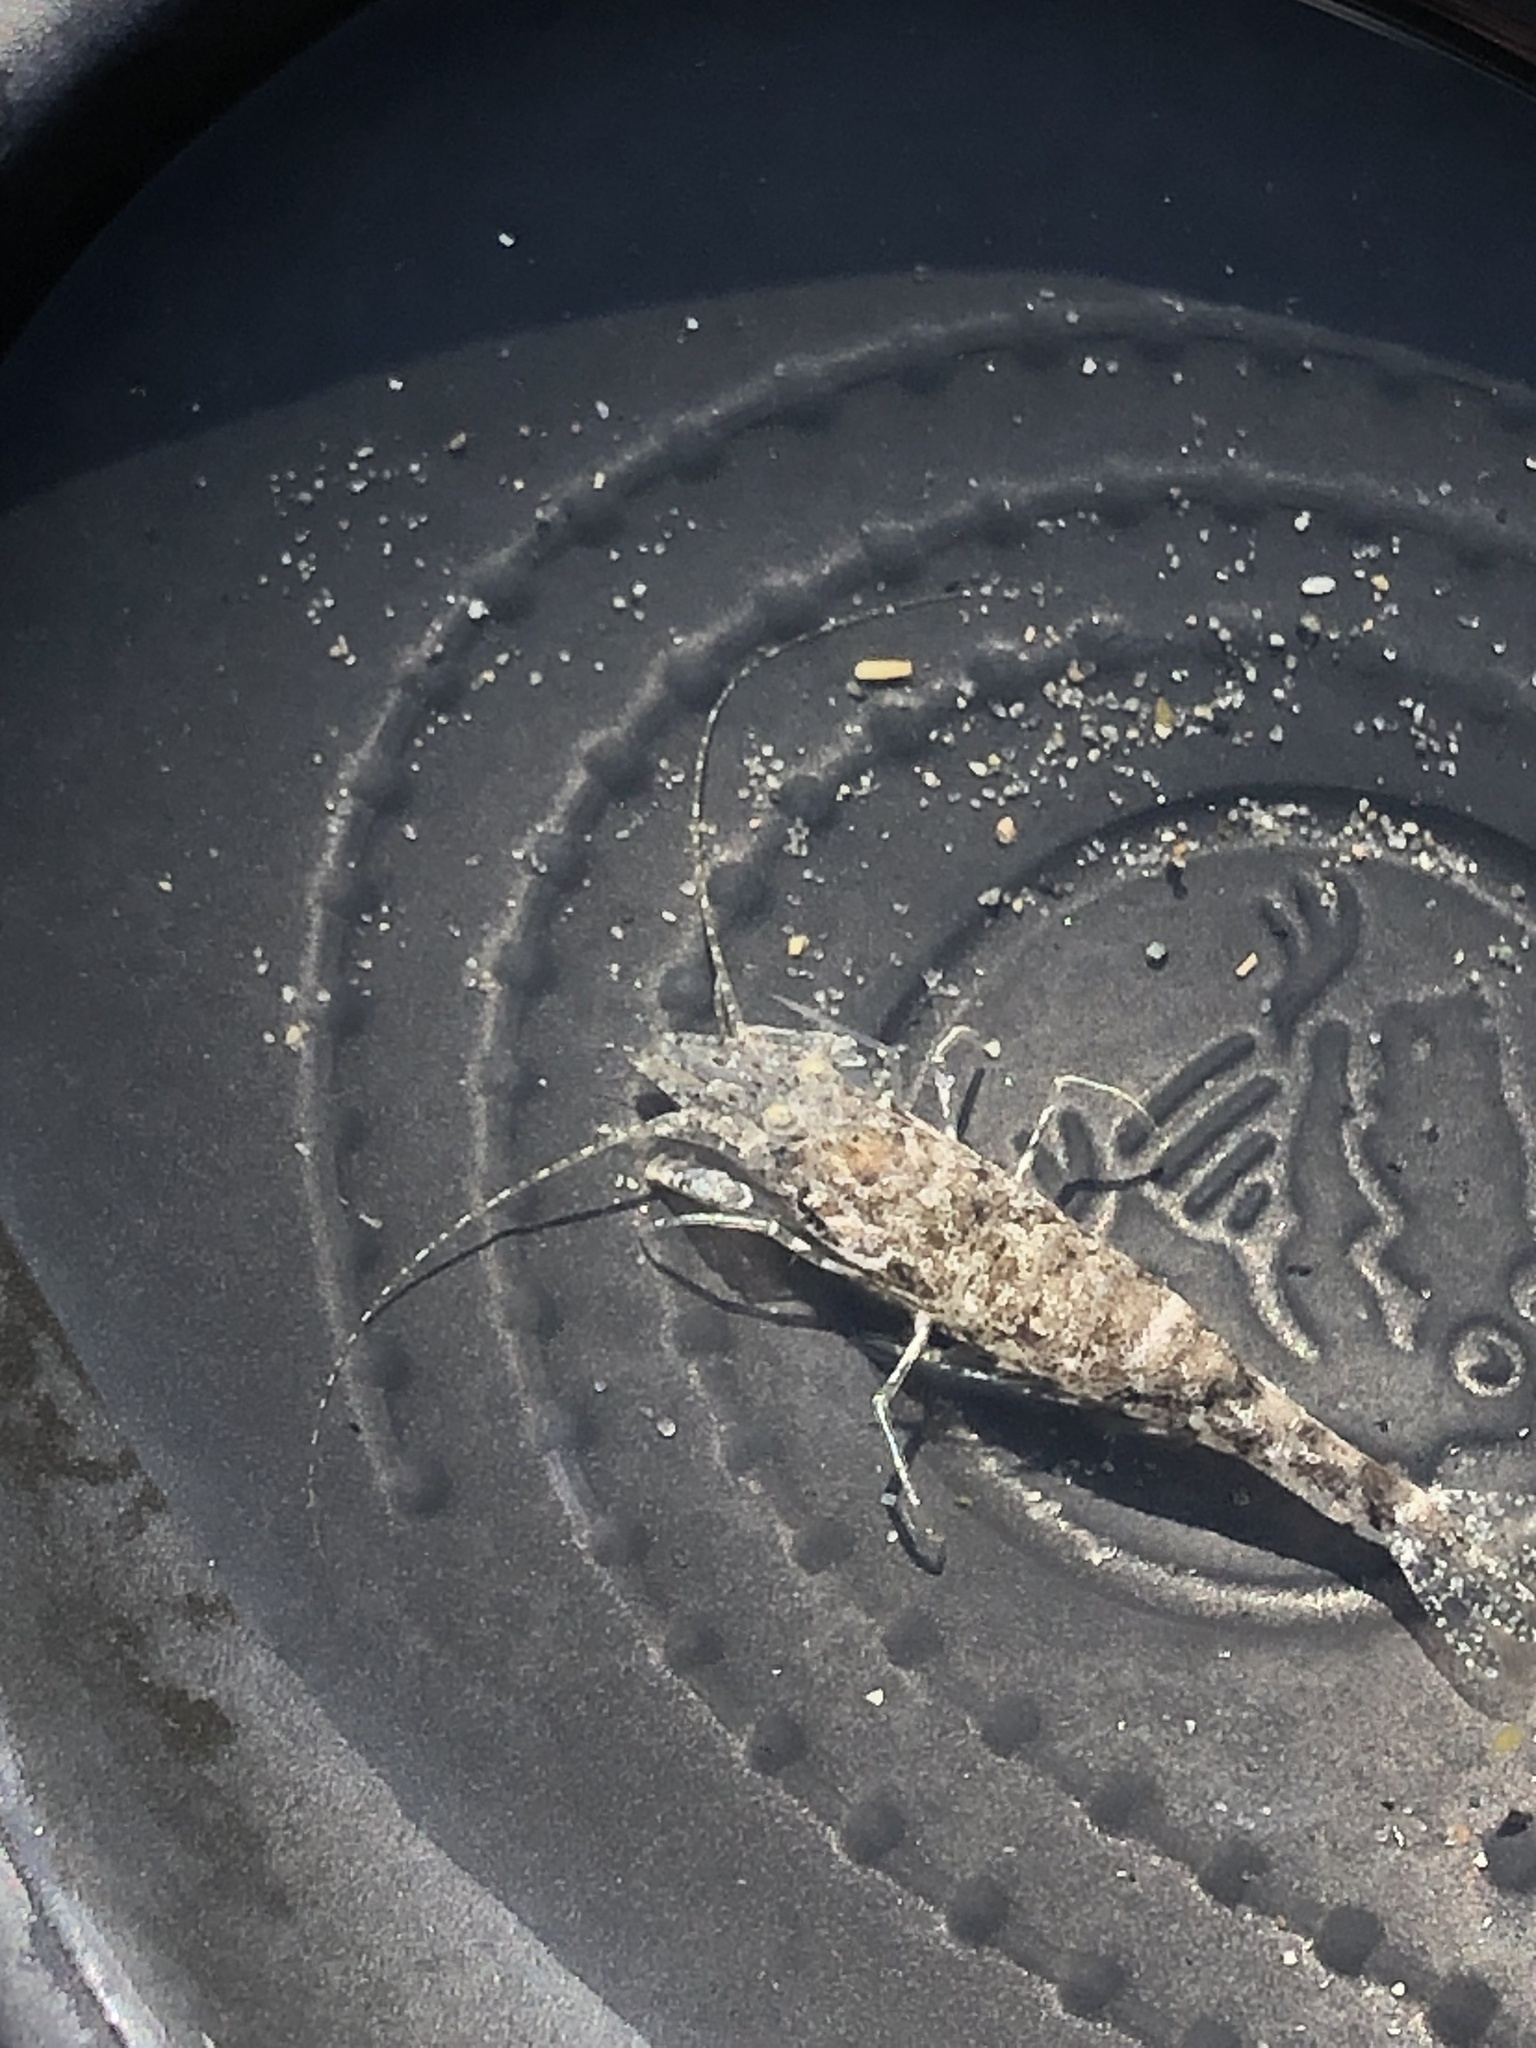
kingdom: Animalia
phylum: Arthropoda
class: Malacostraca
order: Decapoda
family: Crangonidae
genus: Crangon
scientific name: Crangon septemspinosa
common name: Bail shrimp
